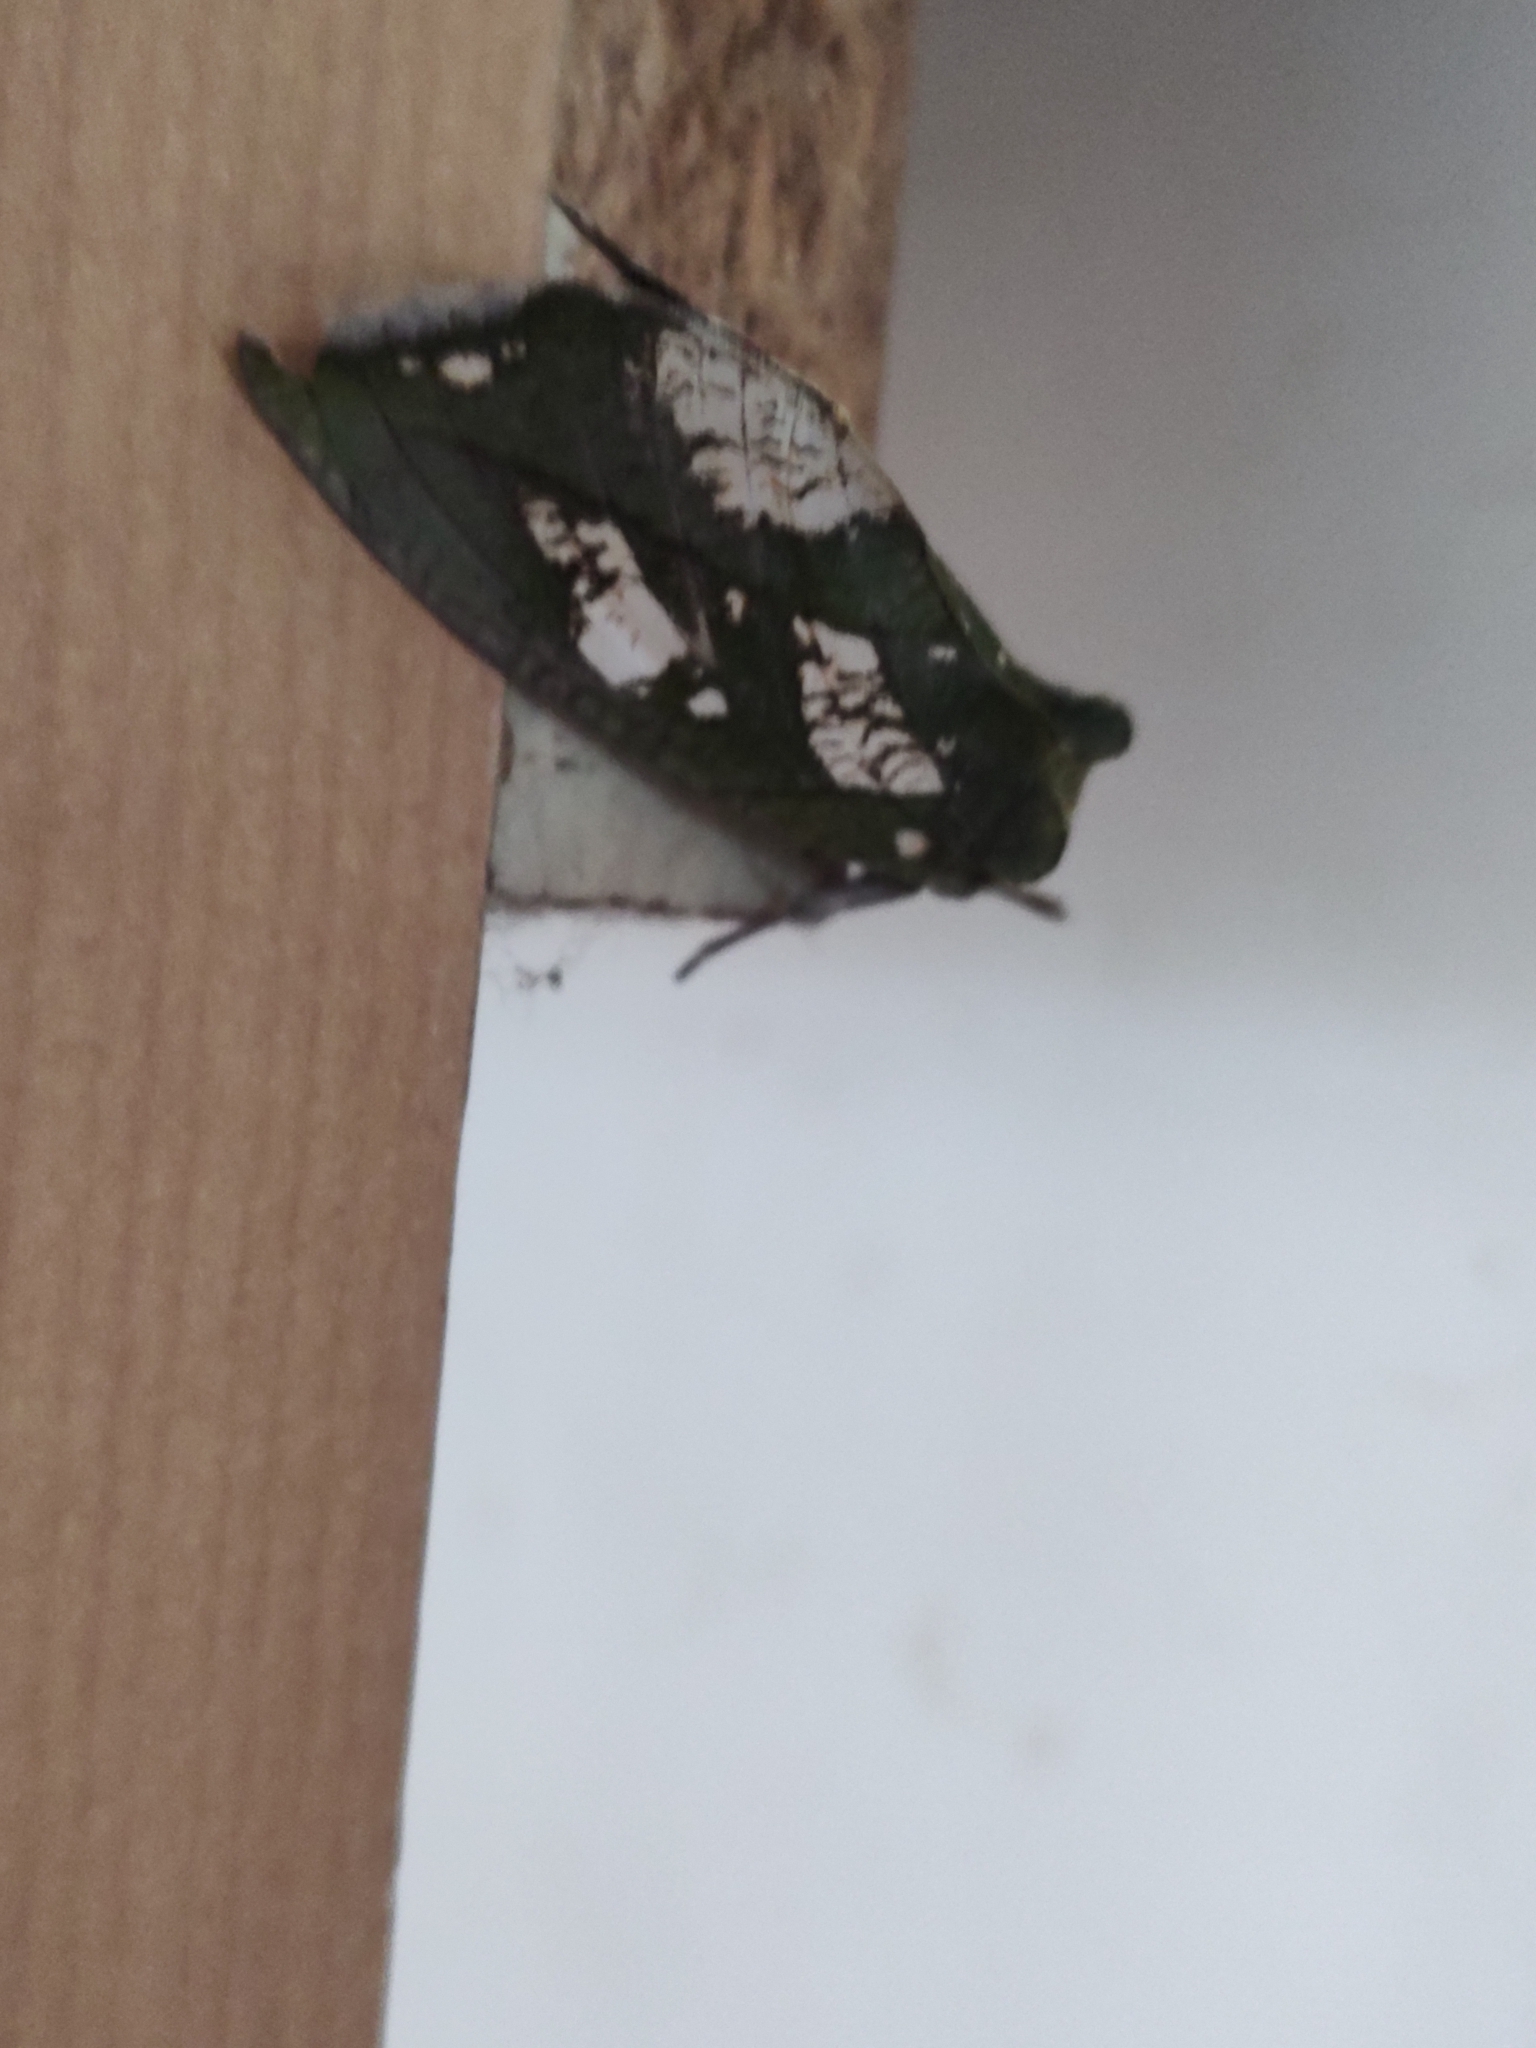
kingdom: Animalia
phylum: Arthropoda
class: Insecta
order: Lepidoptera
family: Erebidae
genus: Eudocima
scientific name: Eudocima hypermnestra
